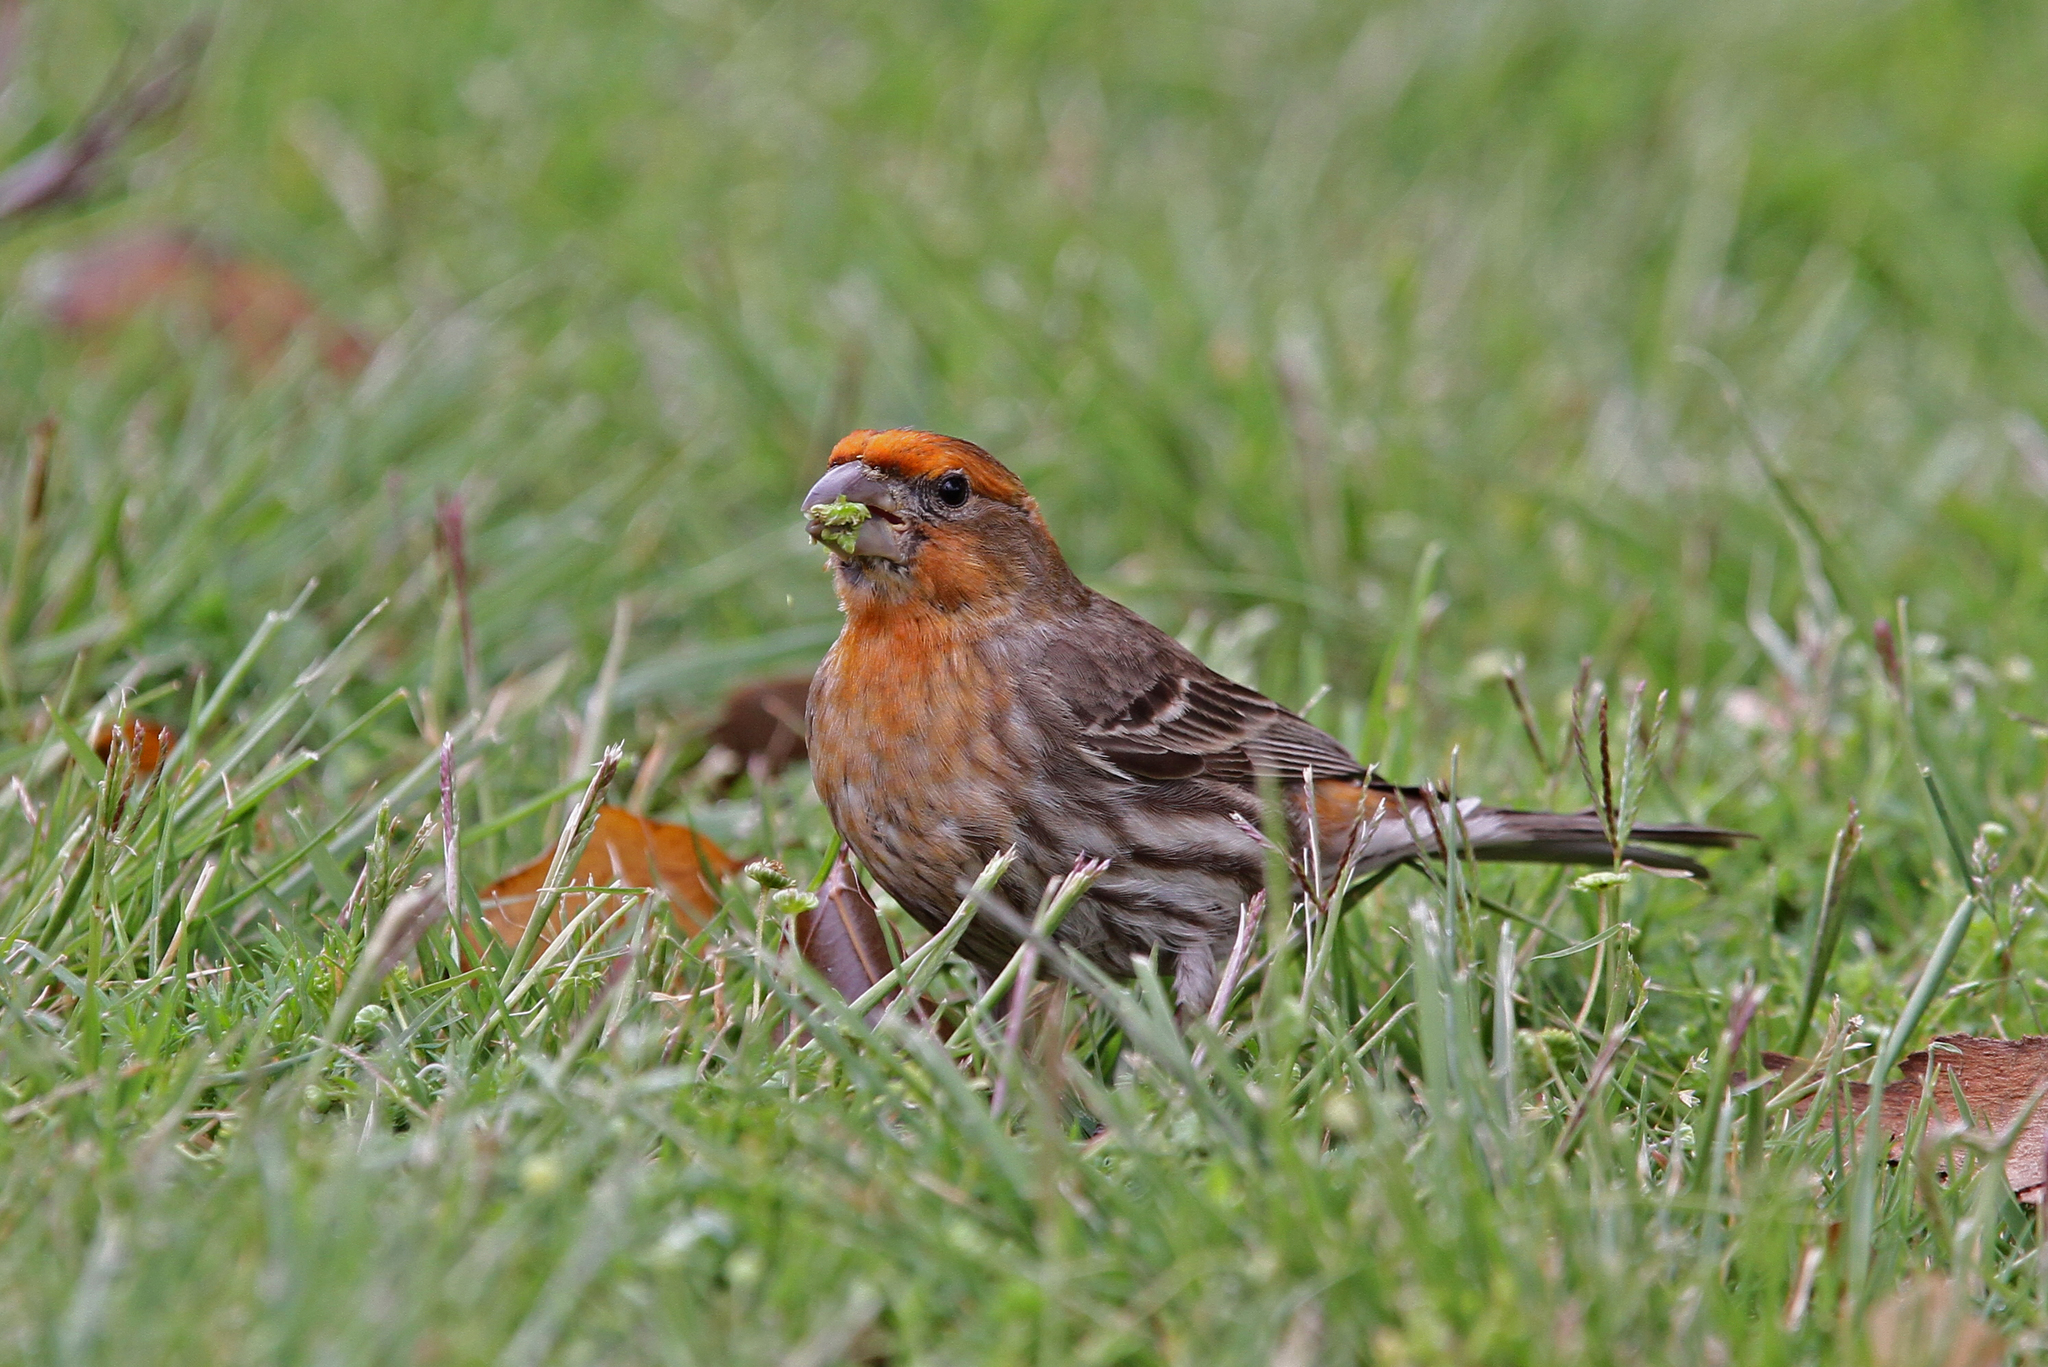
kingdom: Animalia
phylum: Chordata
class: Aves
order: Passeriformes
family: Fringillidae
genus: Haemorhous
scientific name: Haemorhous mexicanus
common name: House finch
